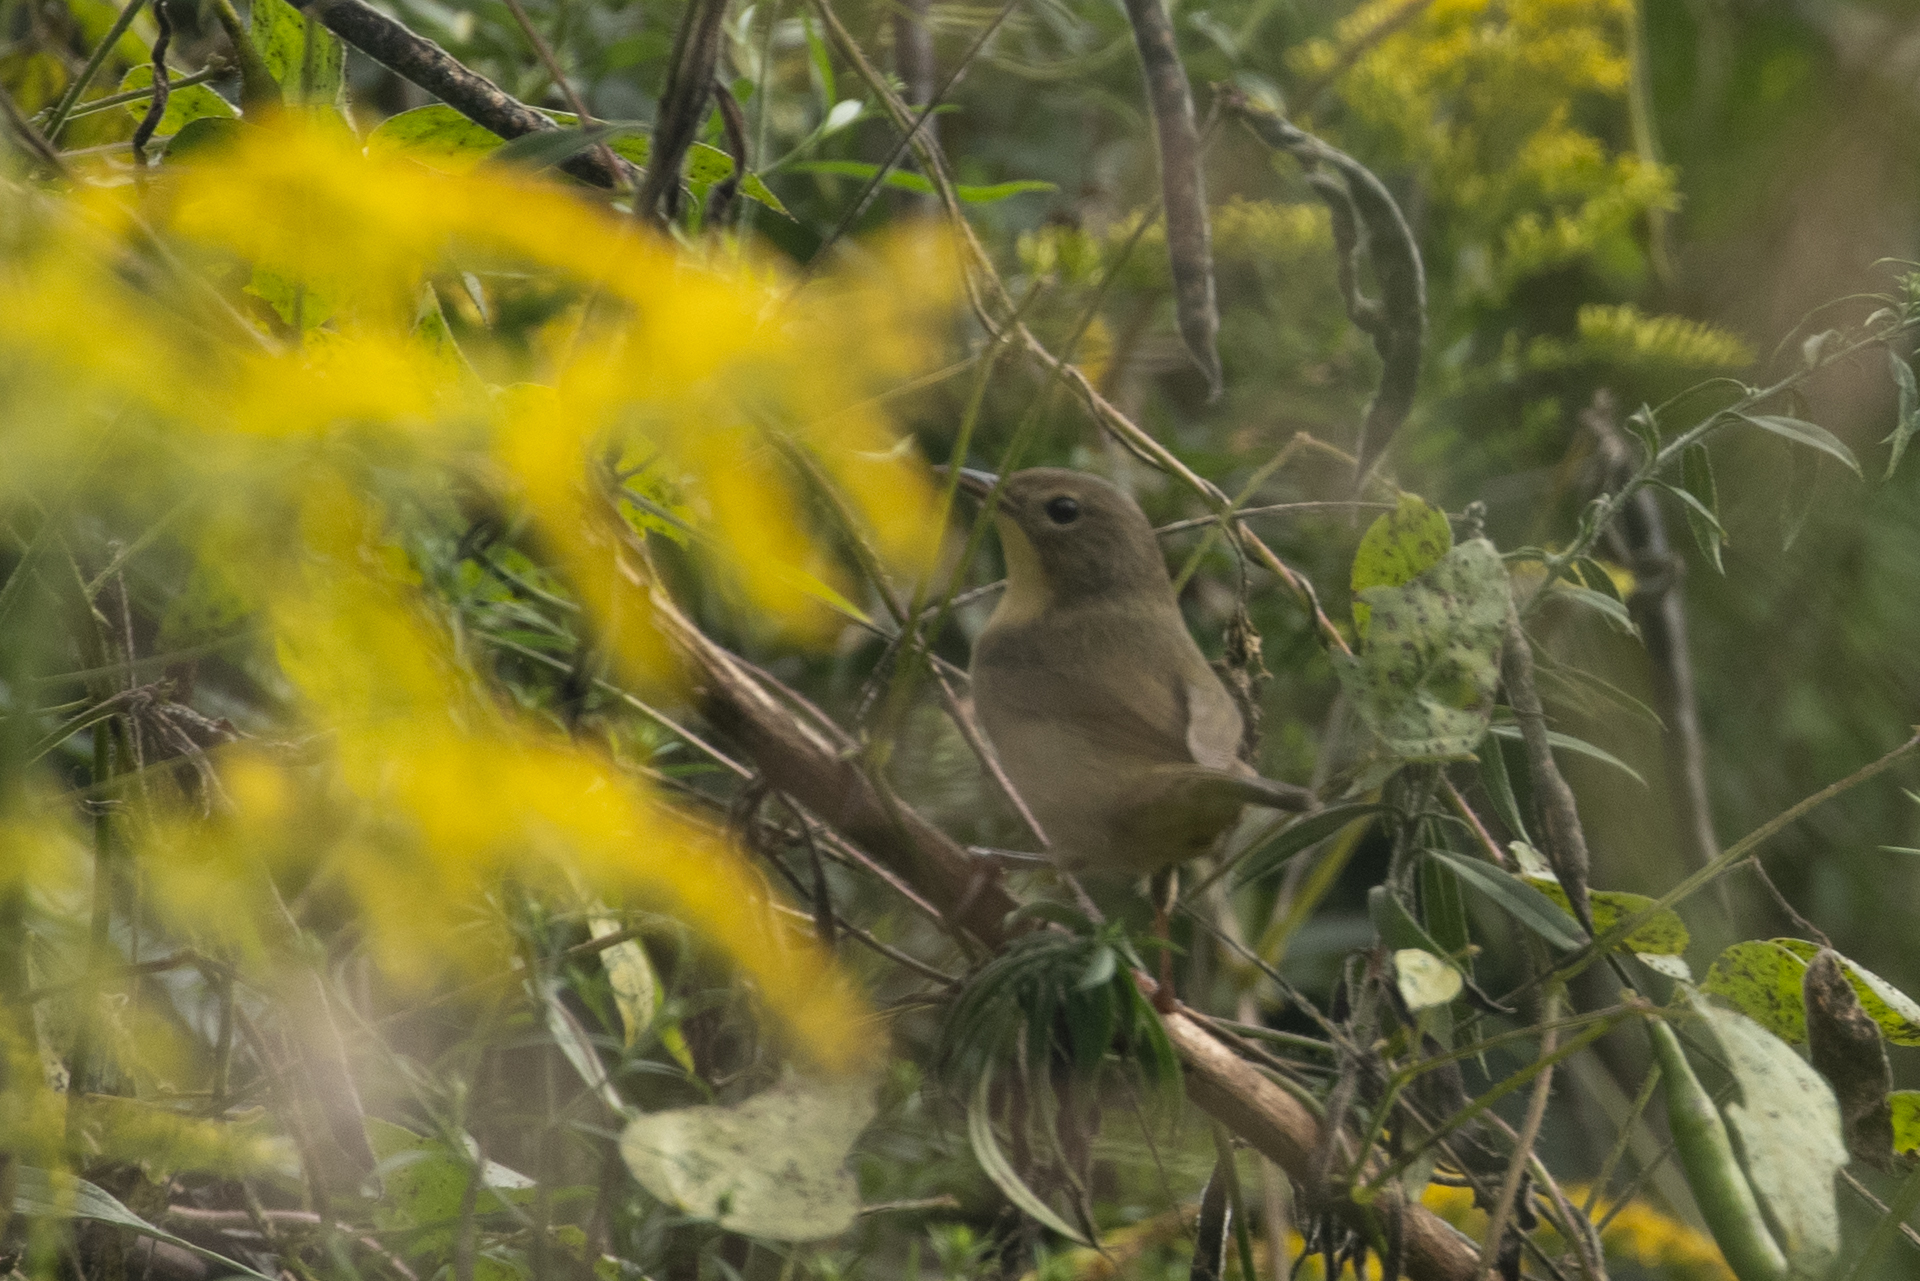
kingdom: Animalia
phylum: Chordata
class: Aves
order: Passeriformes
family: Parulidae
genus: Geothlypis
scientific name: Geothlypis trichas
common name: Common yellowthroat
